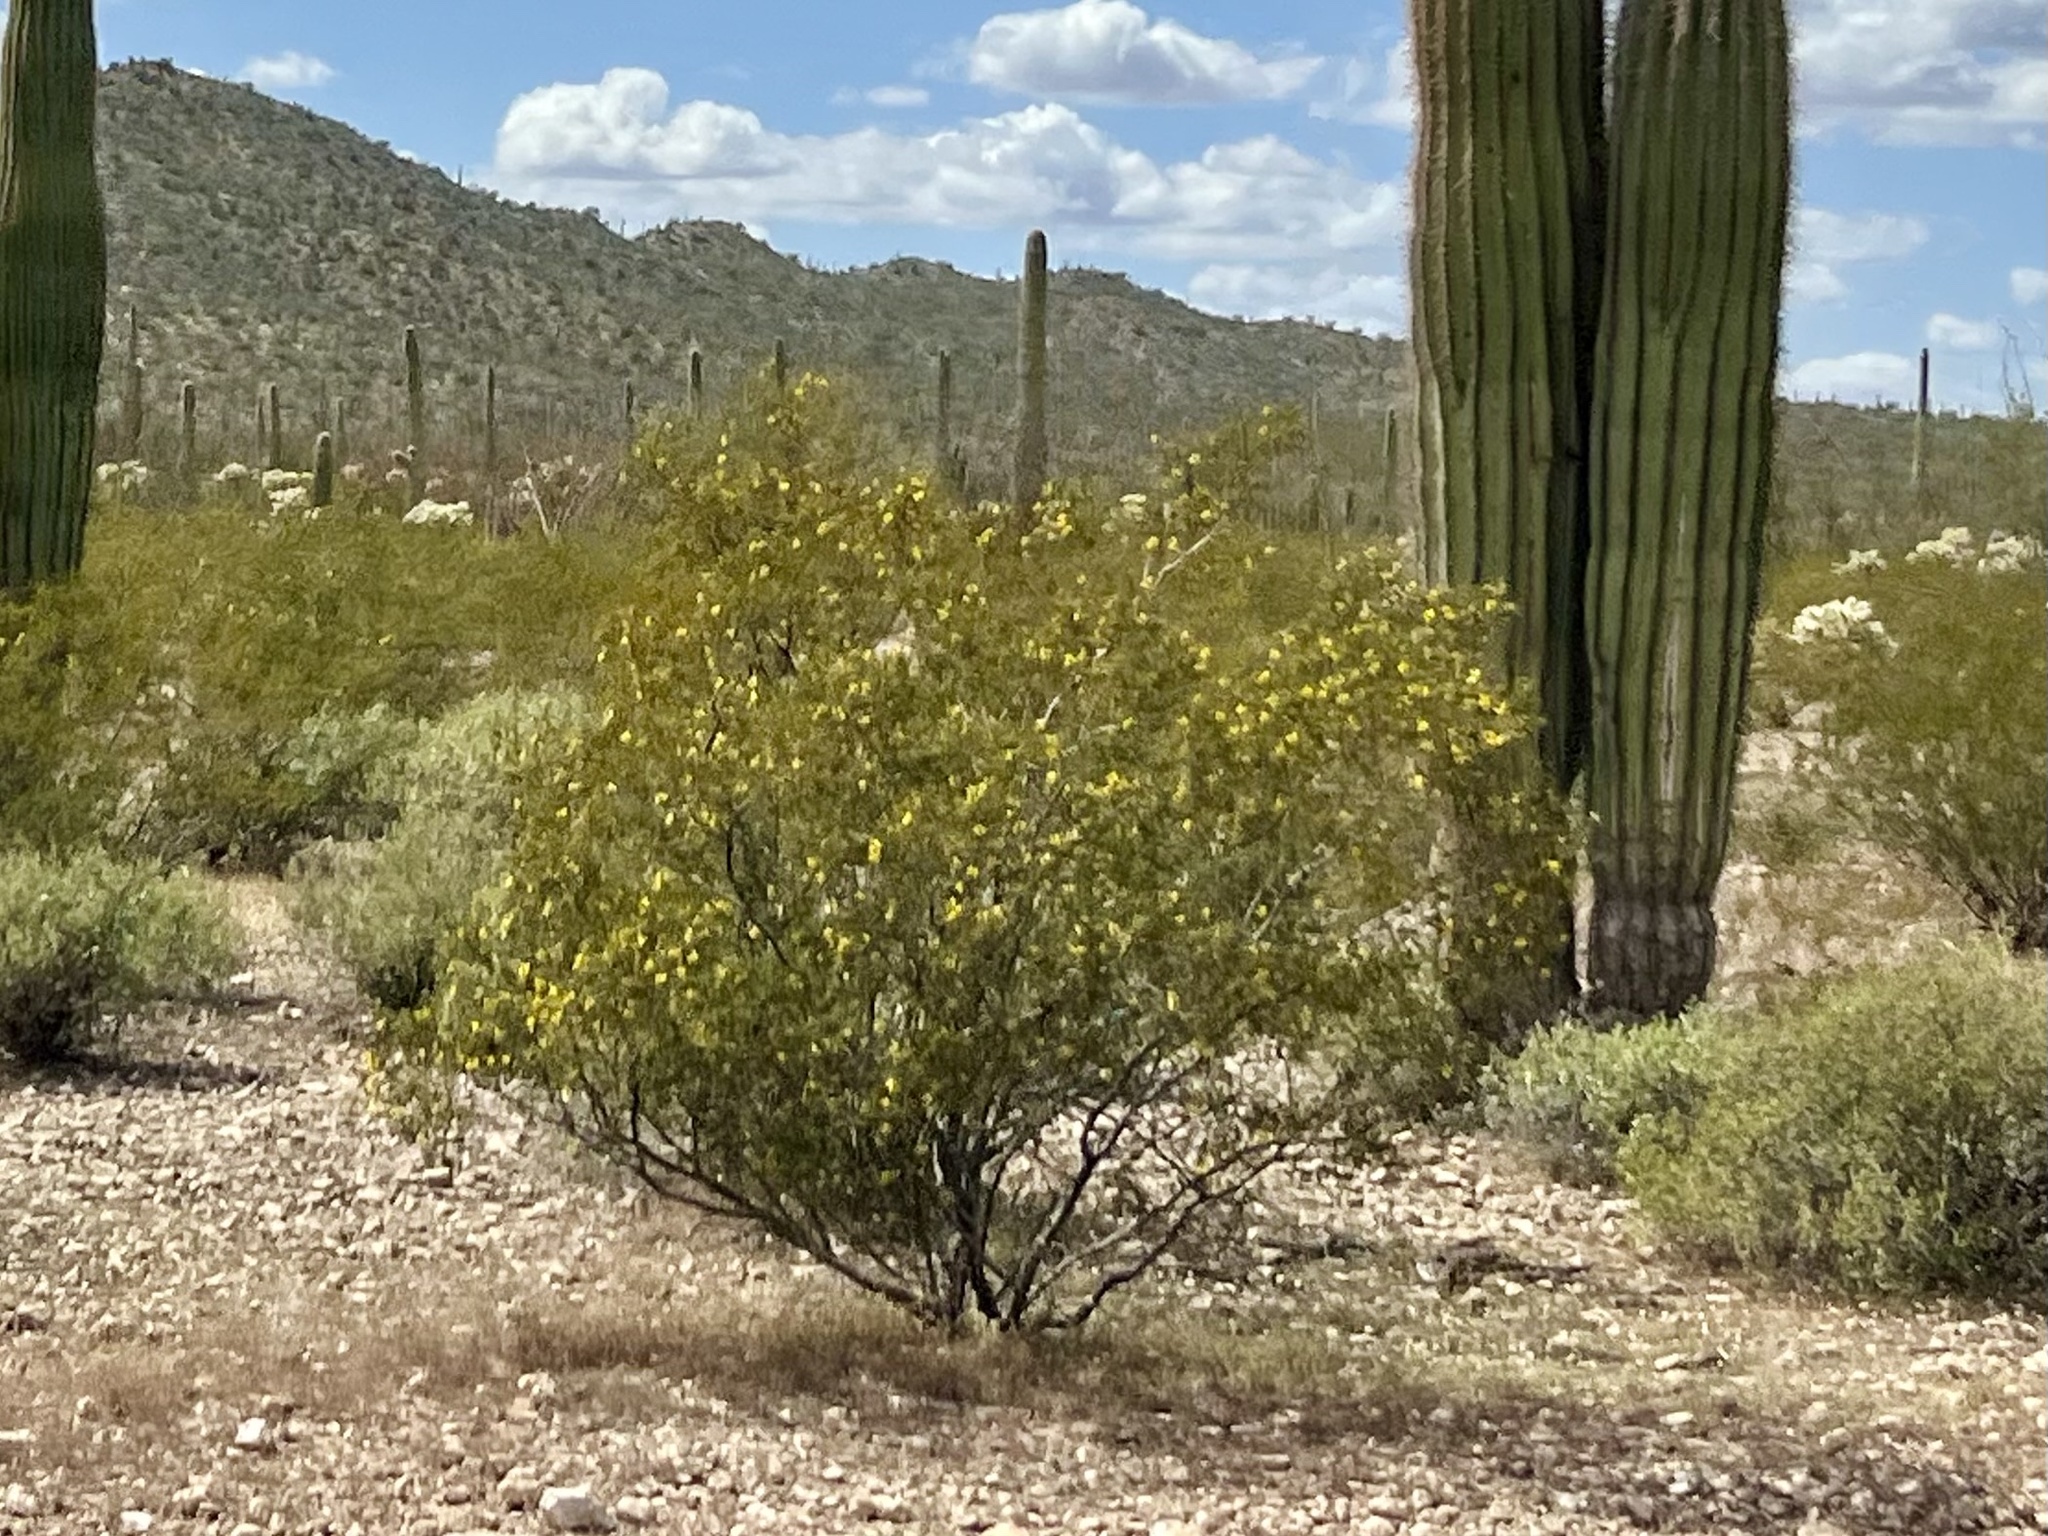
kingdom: Plantae
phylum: Tracheophyta
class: Magnoliopsida
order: Zygophyllales
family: Zygophyllaceae
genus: Larrea
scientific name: Larrea tridentata
